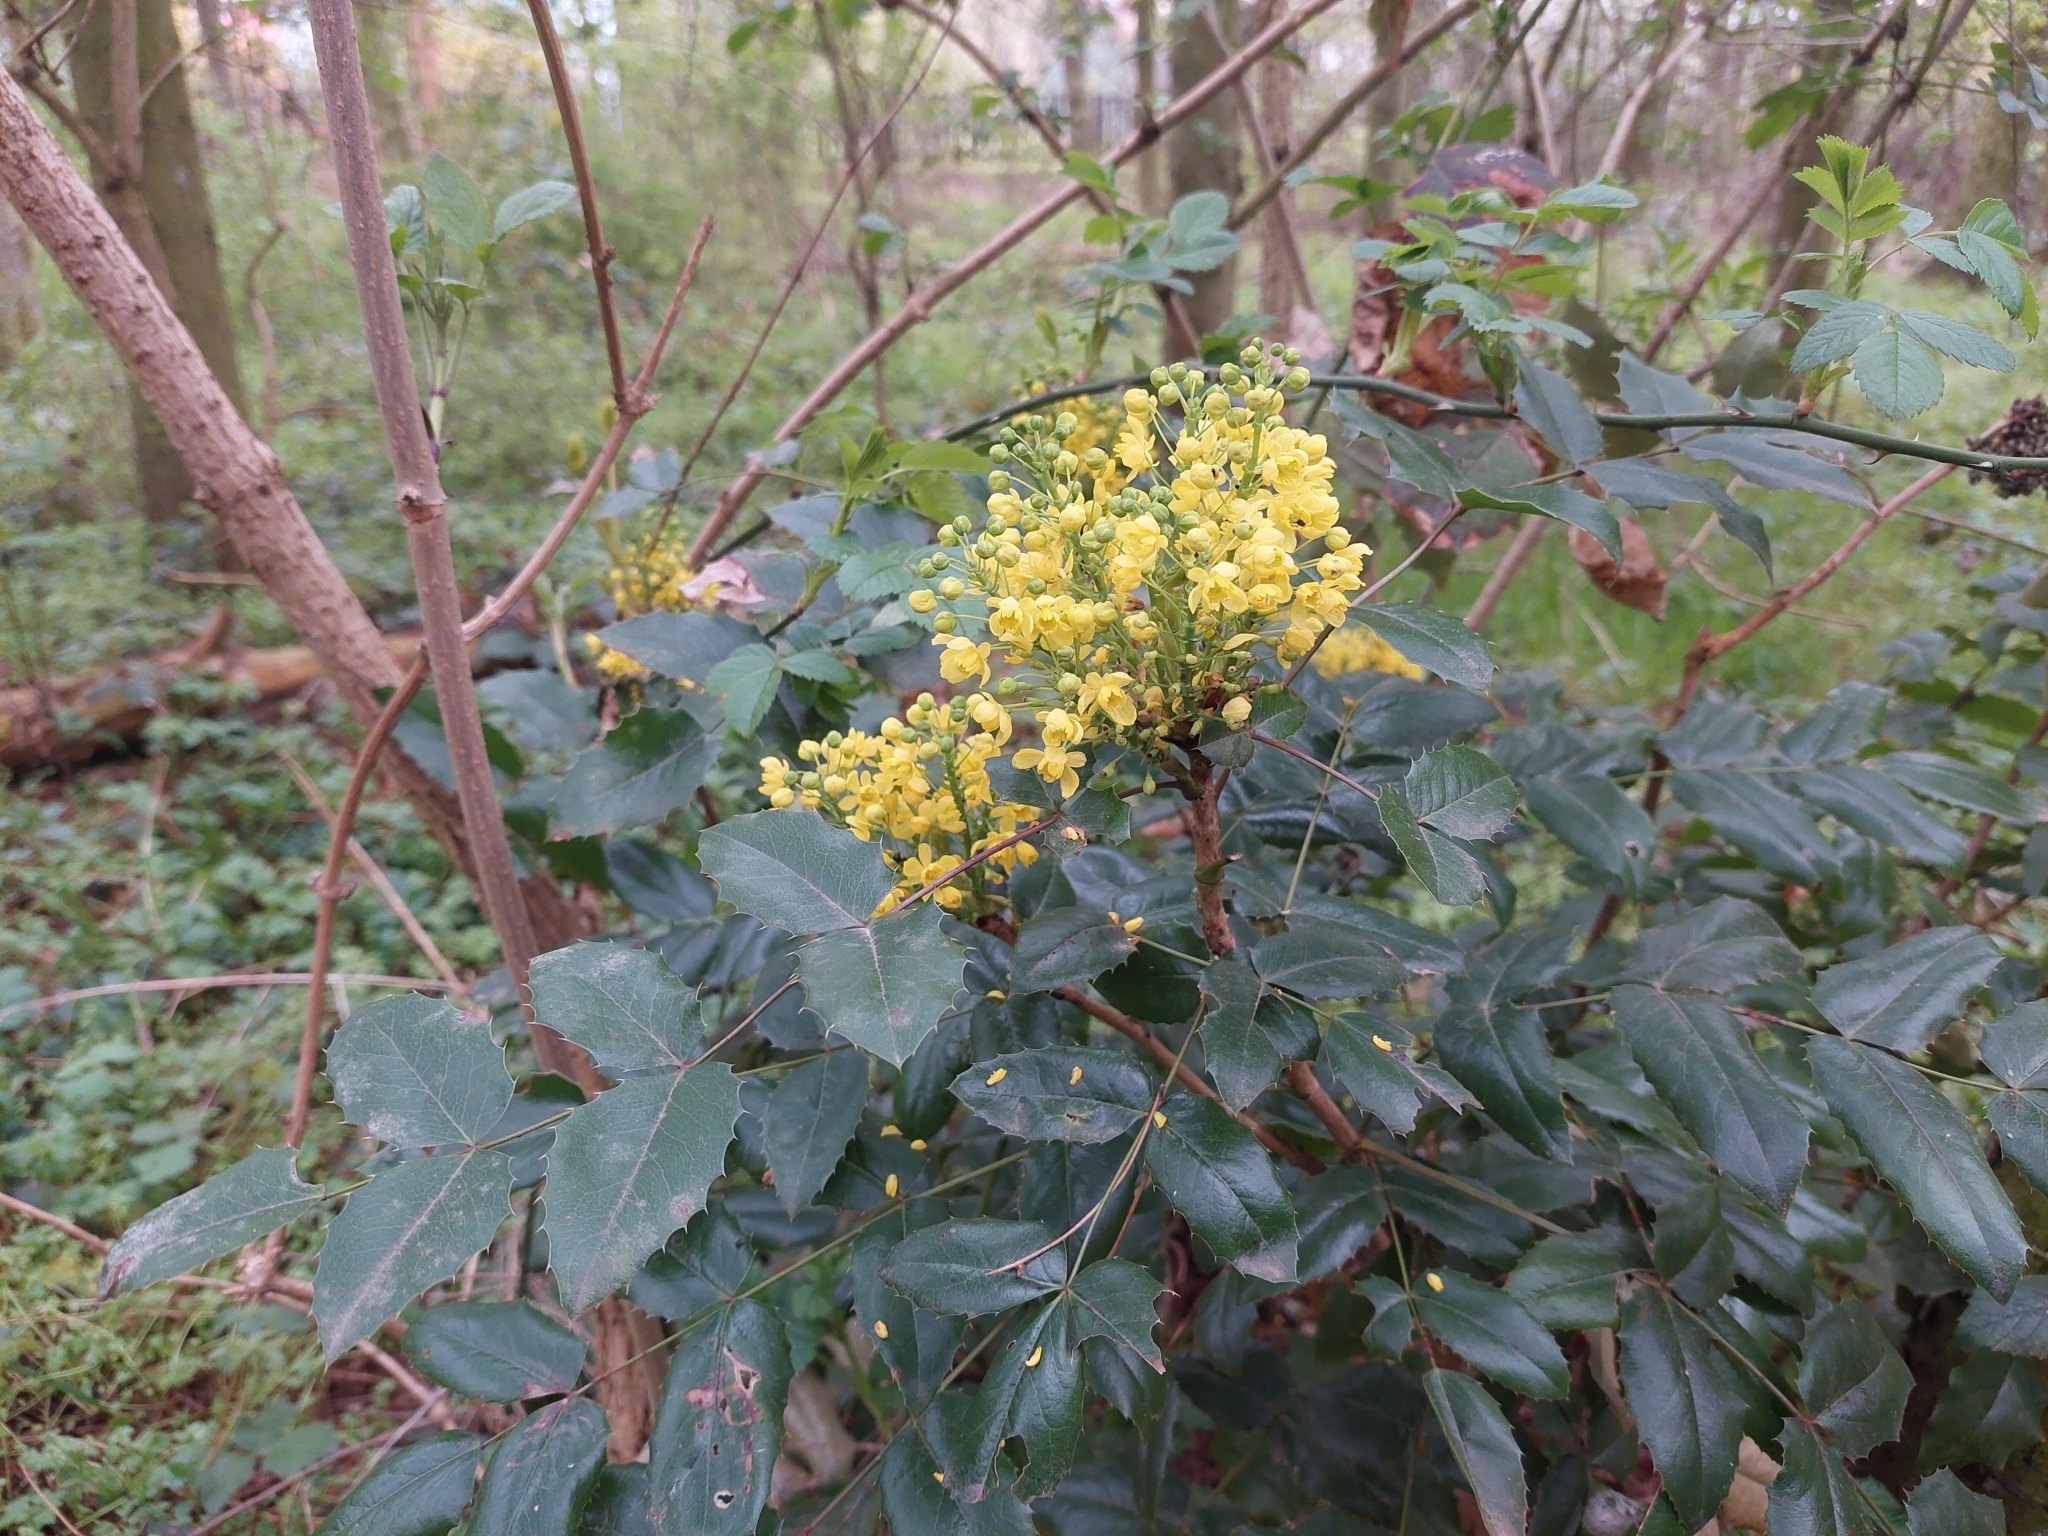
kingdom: Plantae
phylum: Tracheophyta
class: Magnoliopsida
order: Ranunculales
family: Berberidaceae
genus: Mahonia
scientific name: Mahonia aquifolium
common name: Oregon-grape
